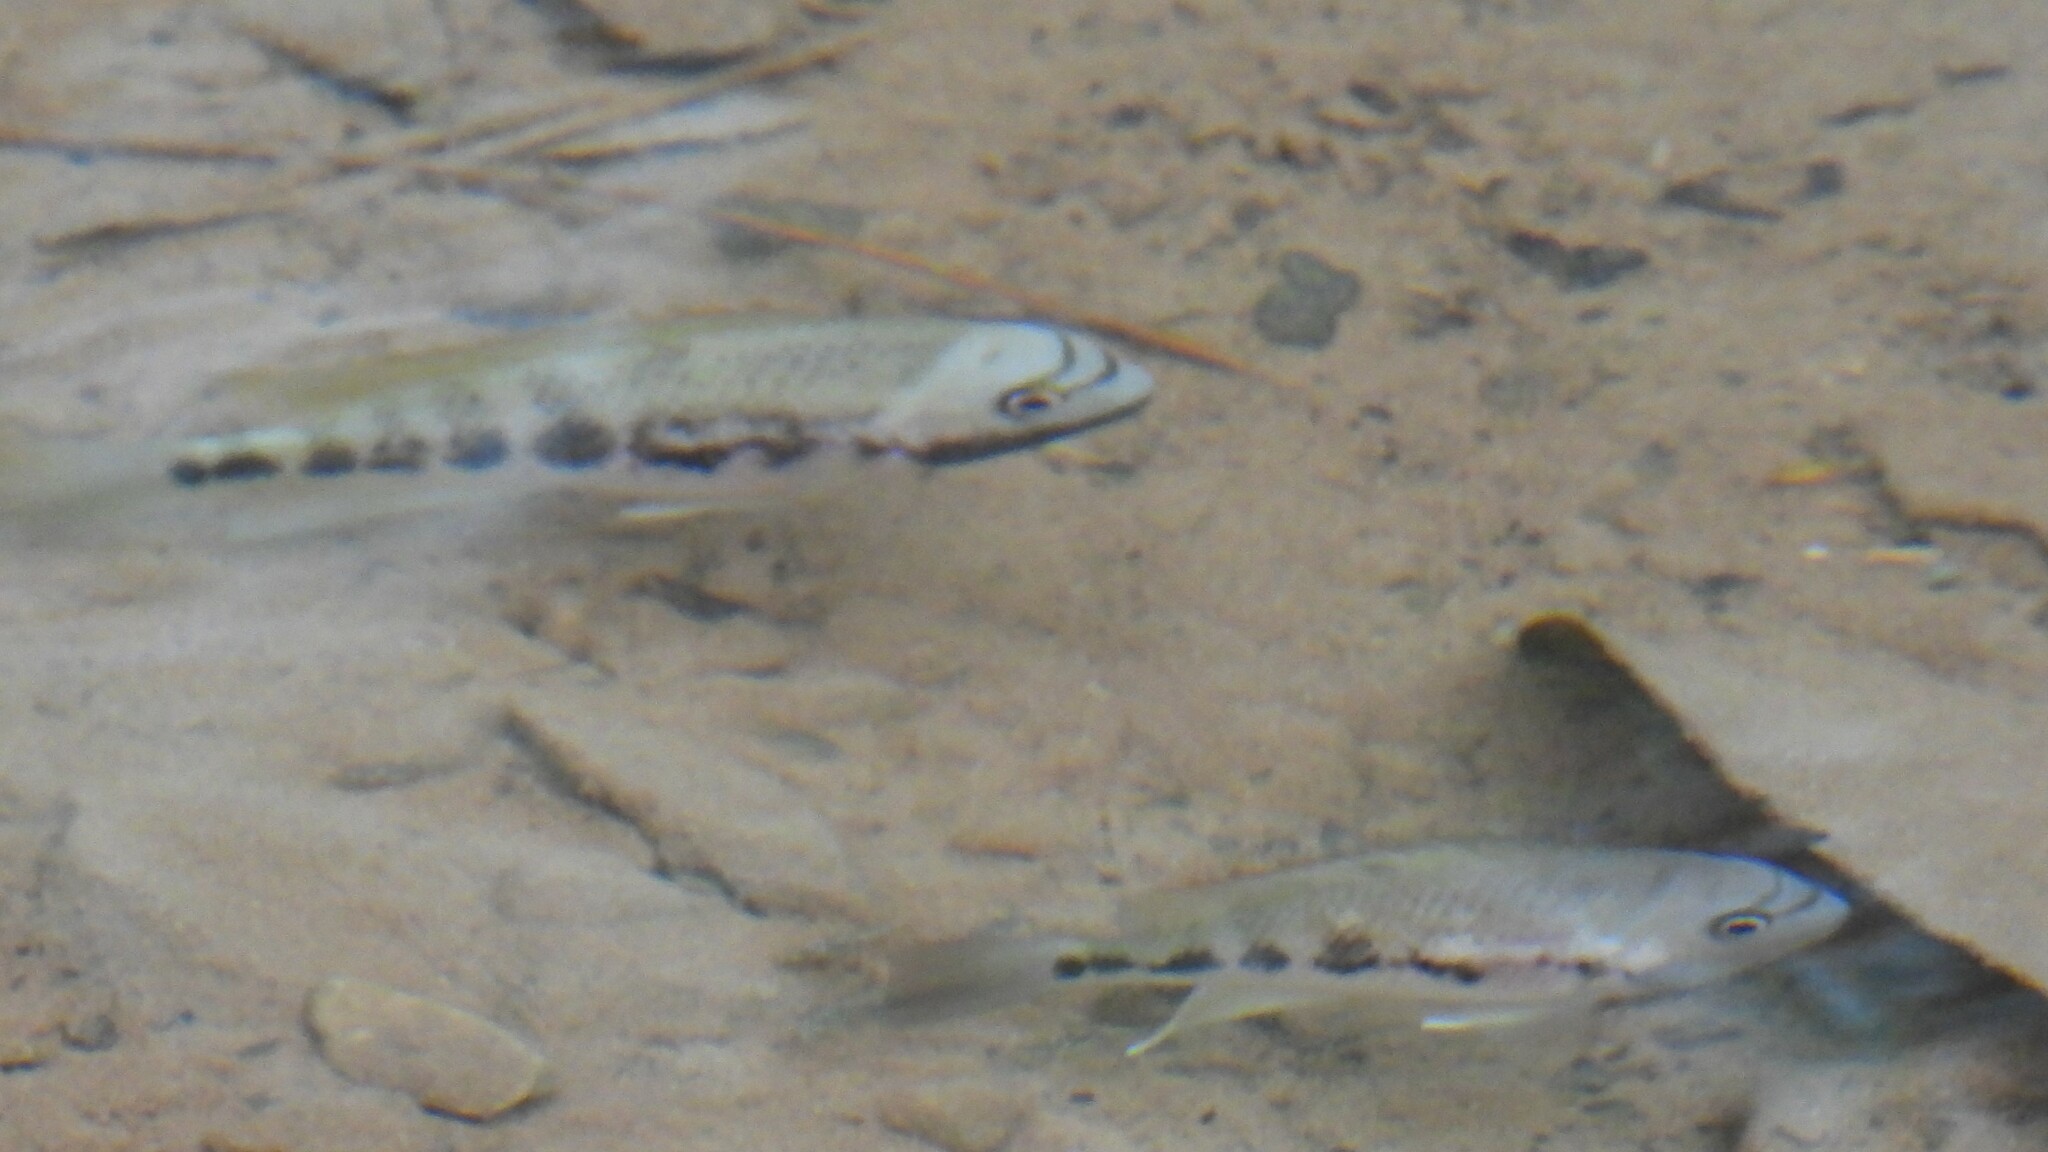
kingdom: Animalia
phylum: Chordata
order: Perciformes
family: Cichlidae
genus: Talamancaheros
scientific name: Talamancaheros sieboldii
